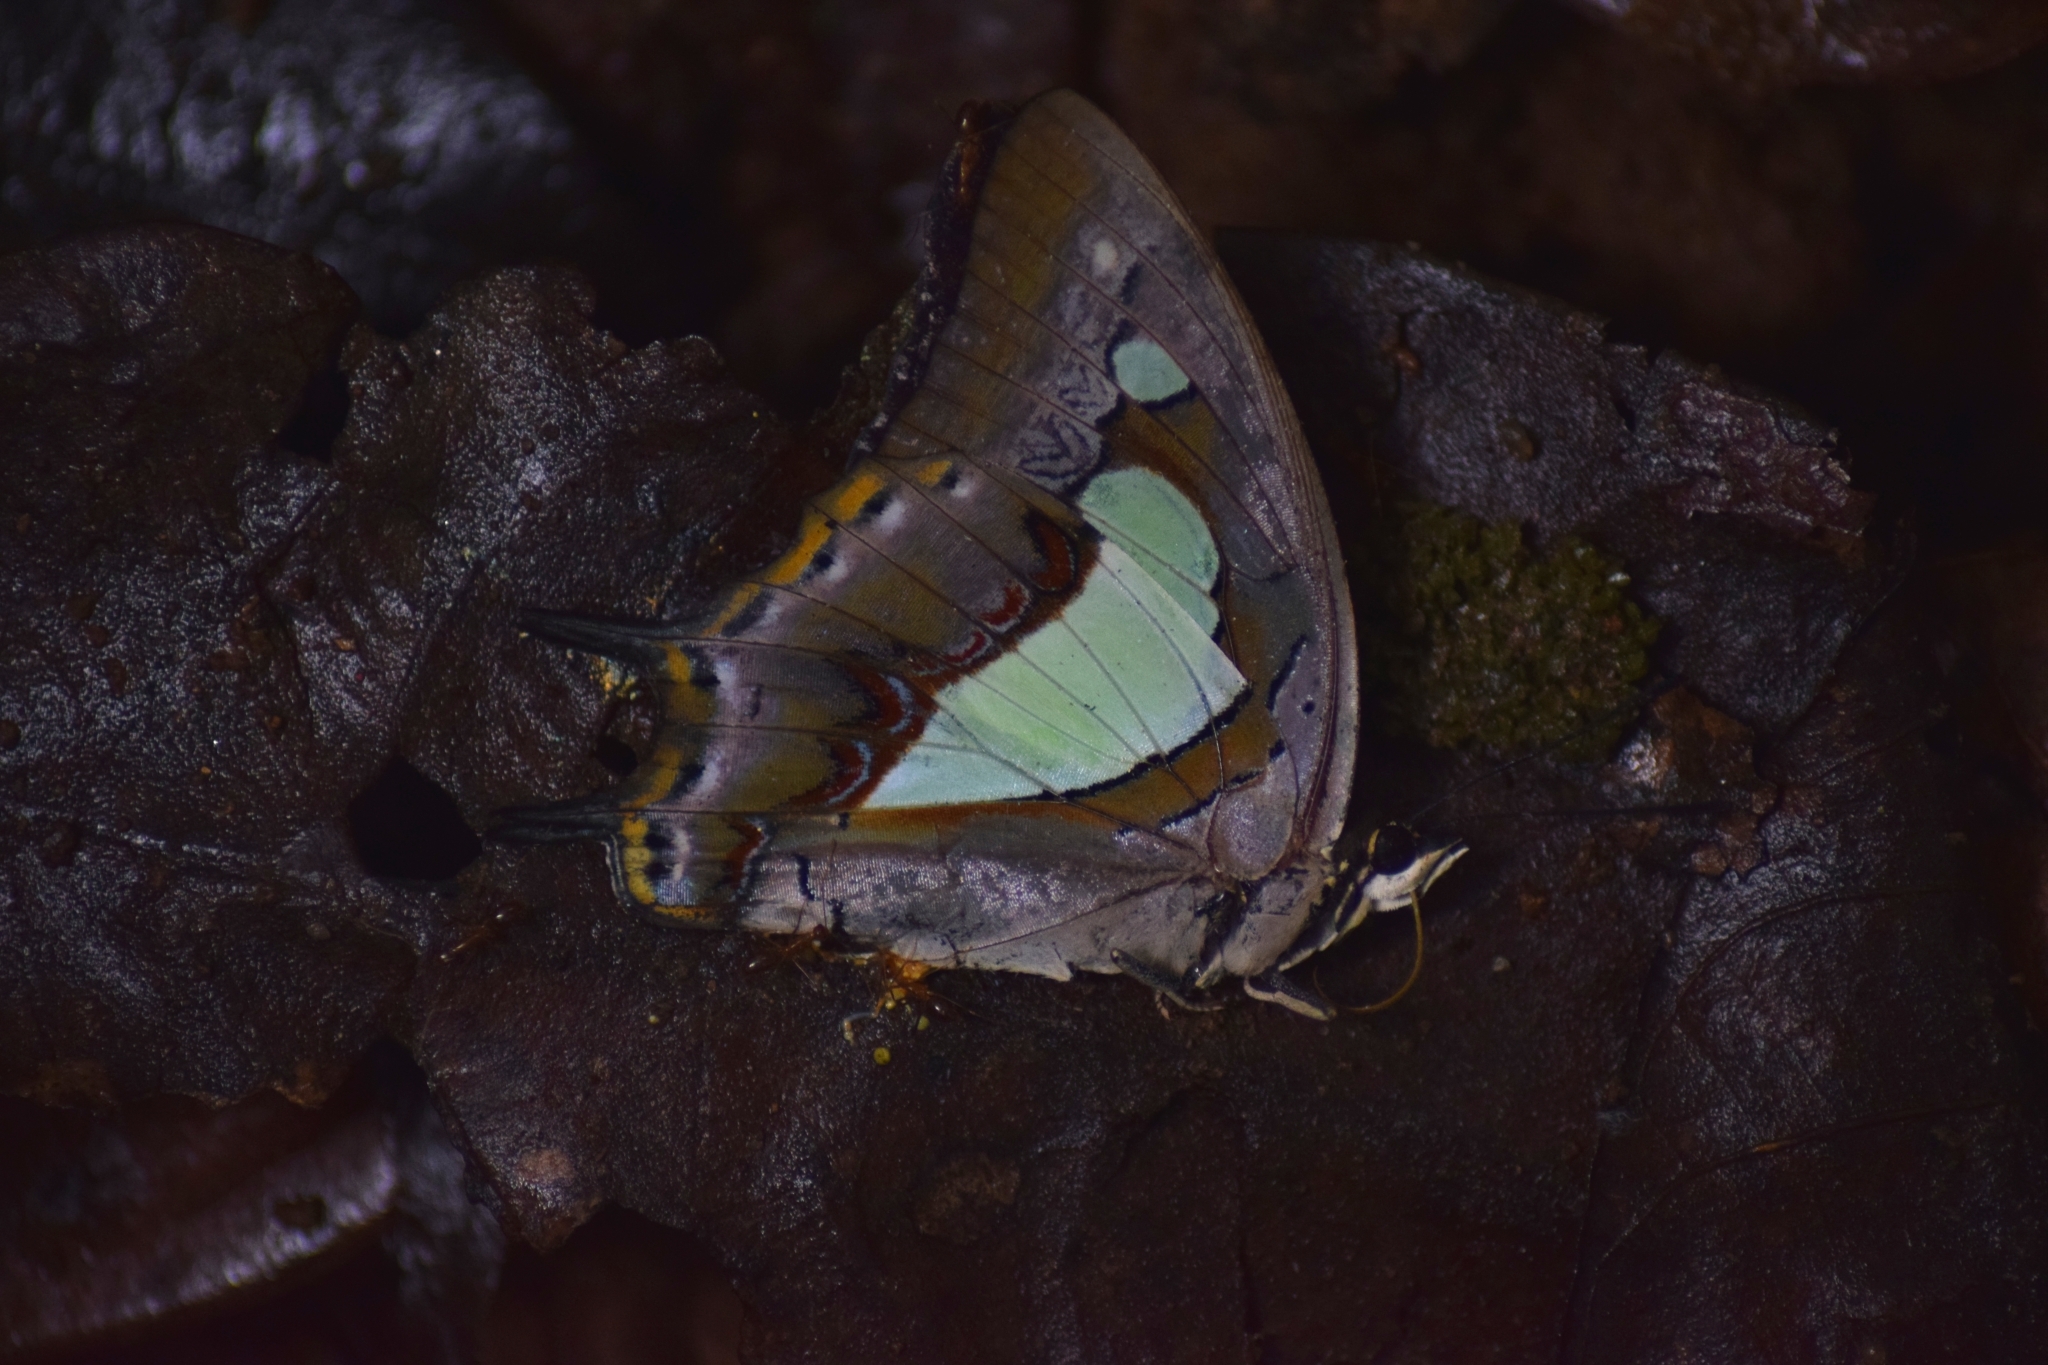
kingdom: Animalia
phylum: Arthropoda
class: Insecta
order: Lepidoptera
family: Nymphalidae
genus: Polyura
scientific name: Polyura
